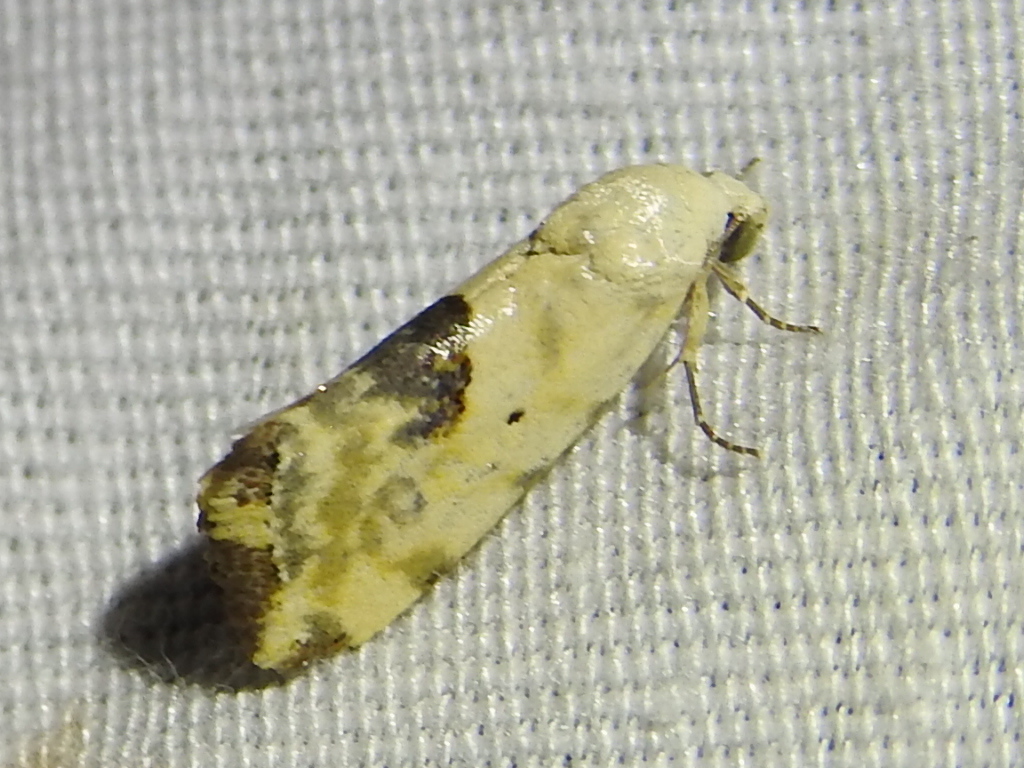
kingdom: Animalia
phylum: Arthropoda
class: Insecta
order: Lepidoptera
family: Noctuidae
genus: Acontia
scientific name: Acontia libedis
